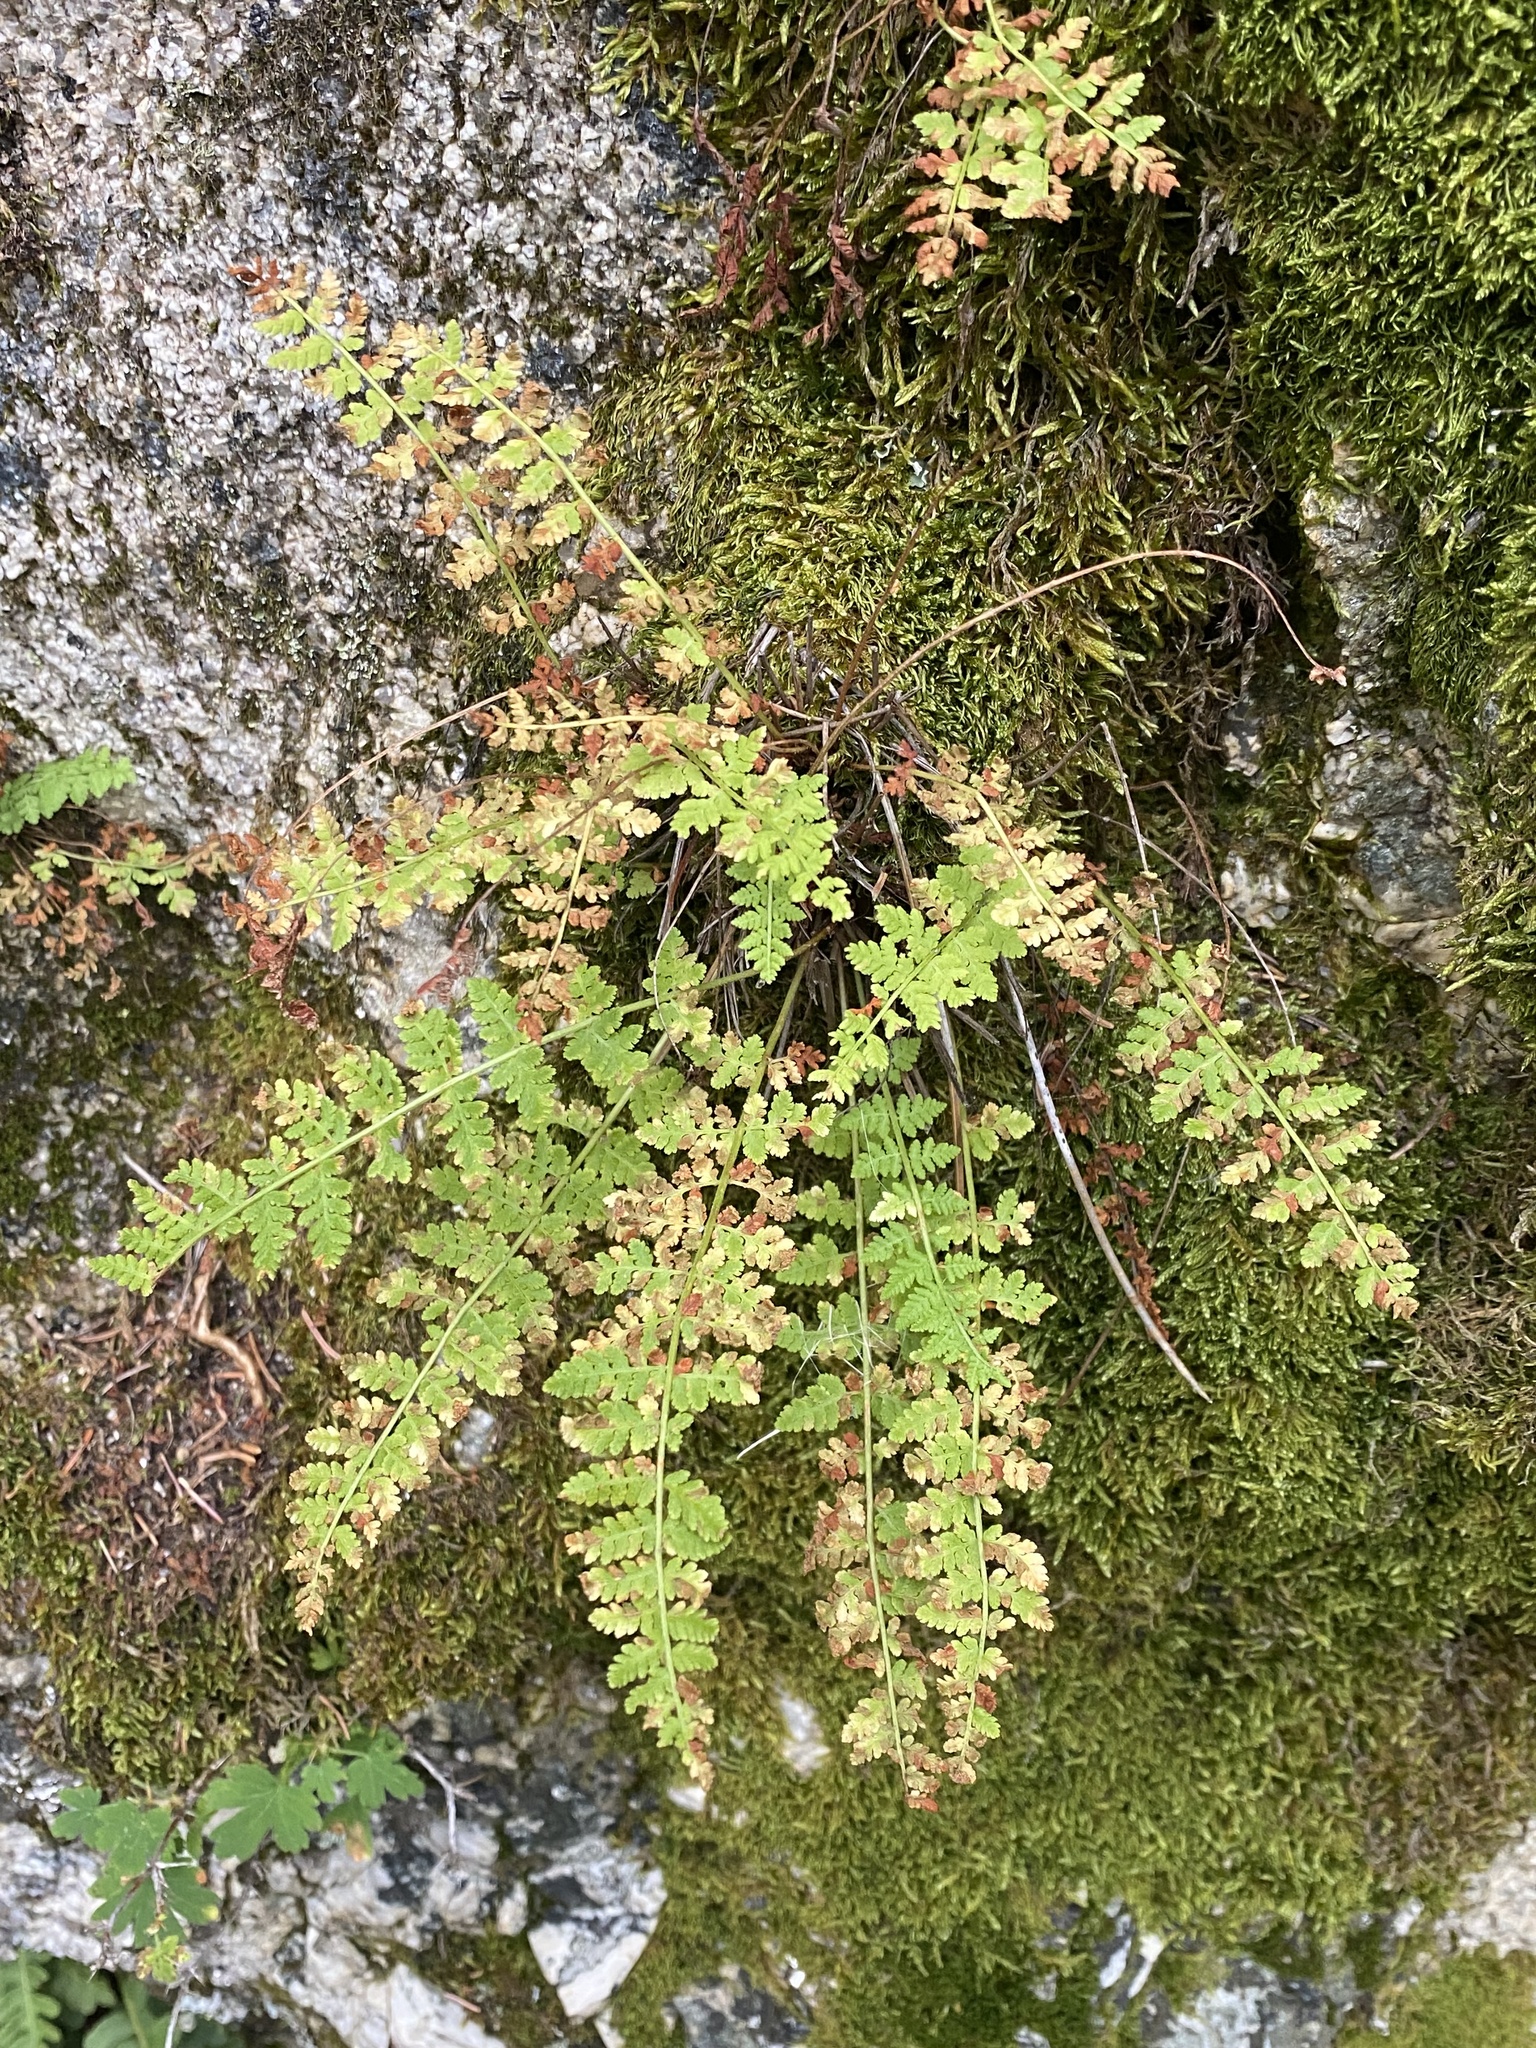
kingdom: Plantae
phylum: Tracheophyta
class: Polypodiopsida
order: Polypodiales
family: Woodsiaceae
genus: Physematium
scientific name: Physematium scopulinum
